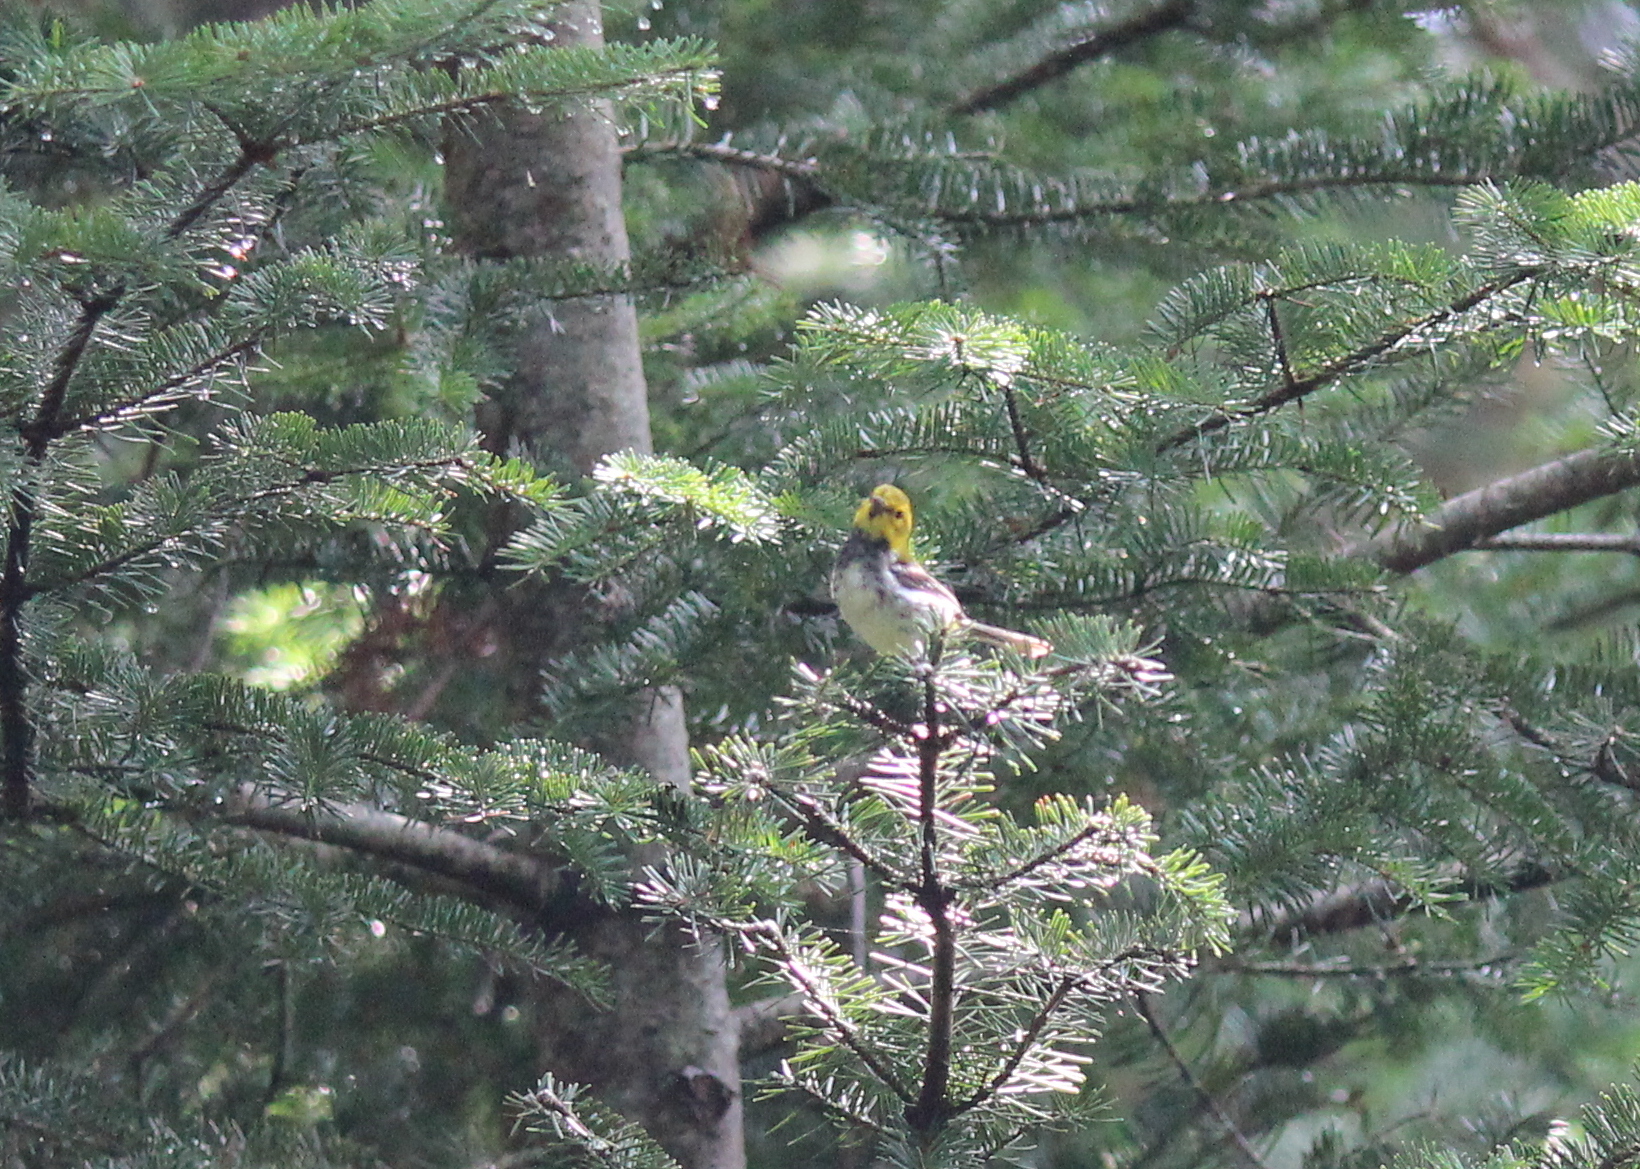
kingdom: Animalia
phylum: Chordata
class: Aves
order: Passeriformes
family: Parulidae
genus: Setophaga
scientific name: Setophaga virens
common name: Black-throated green warbler
